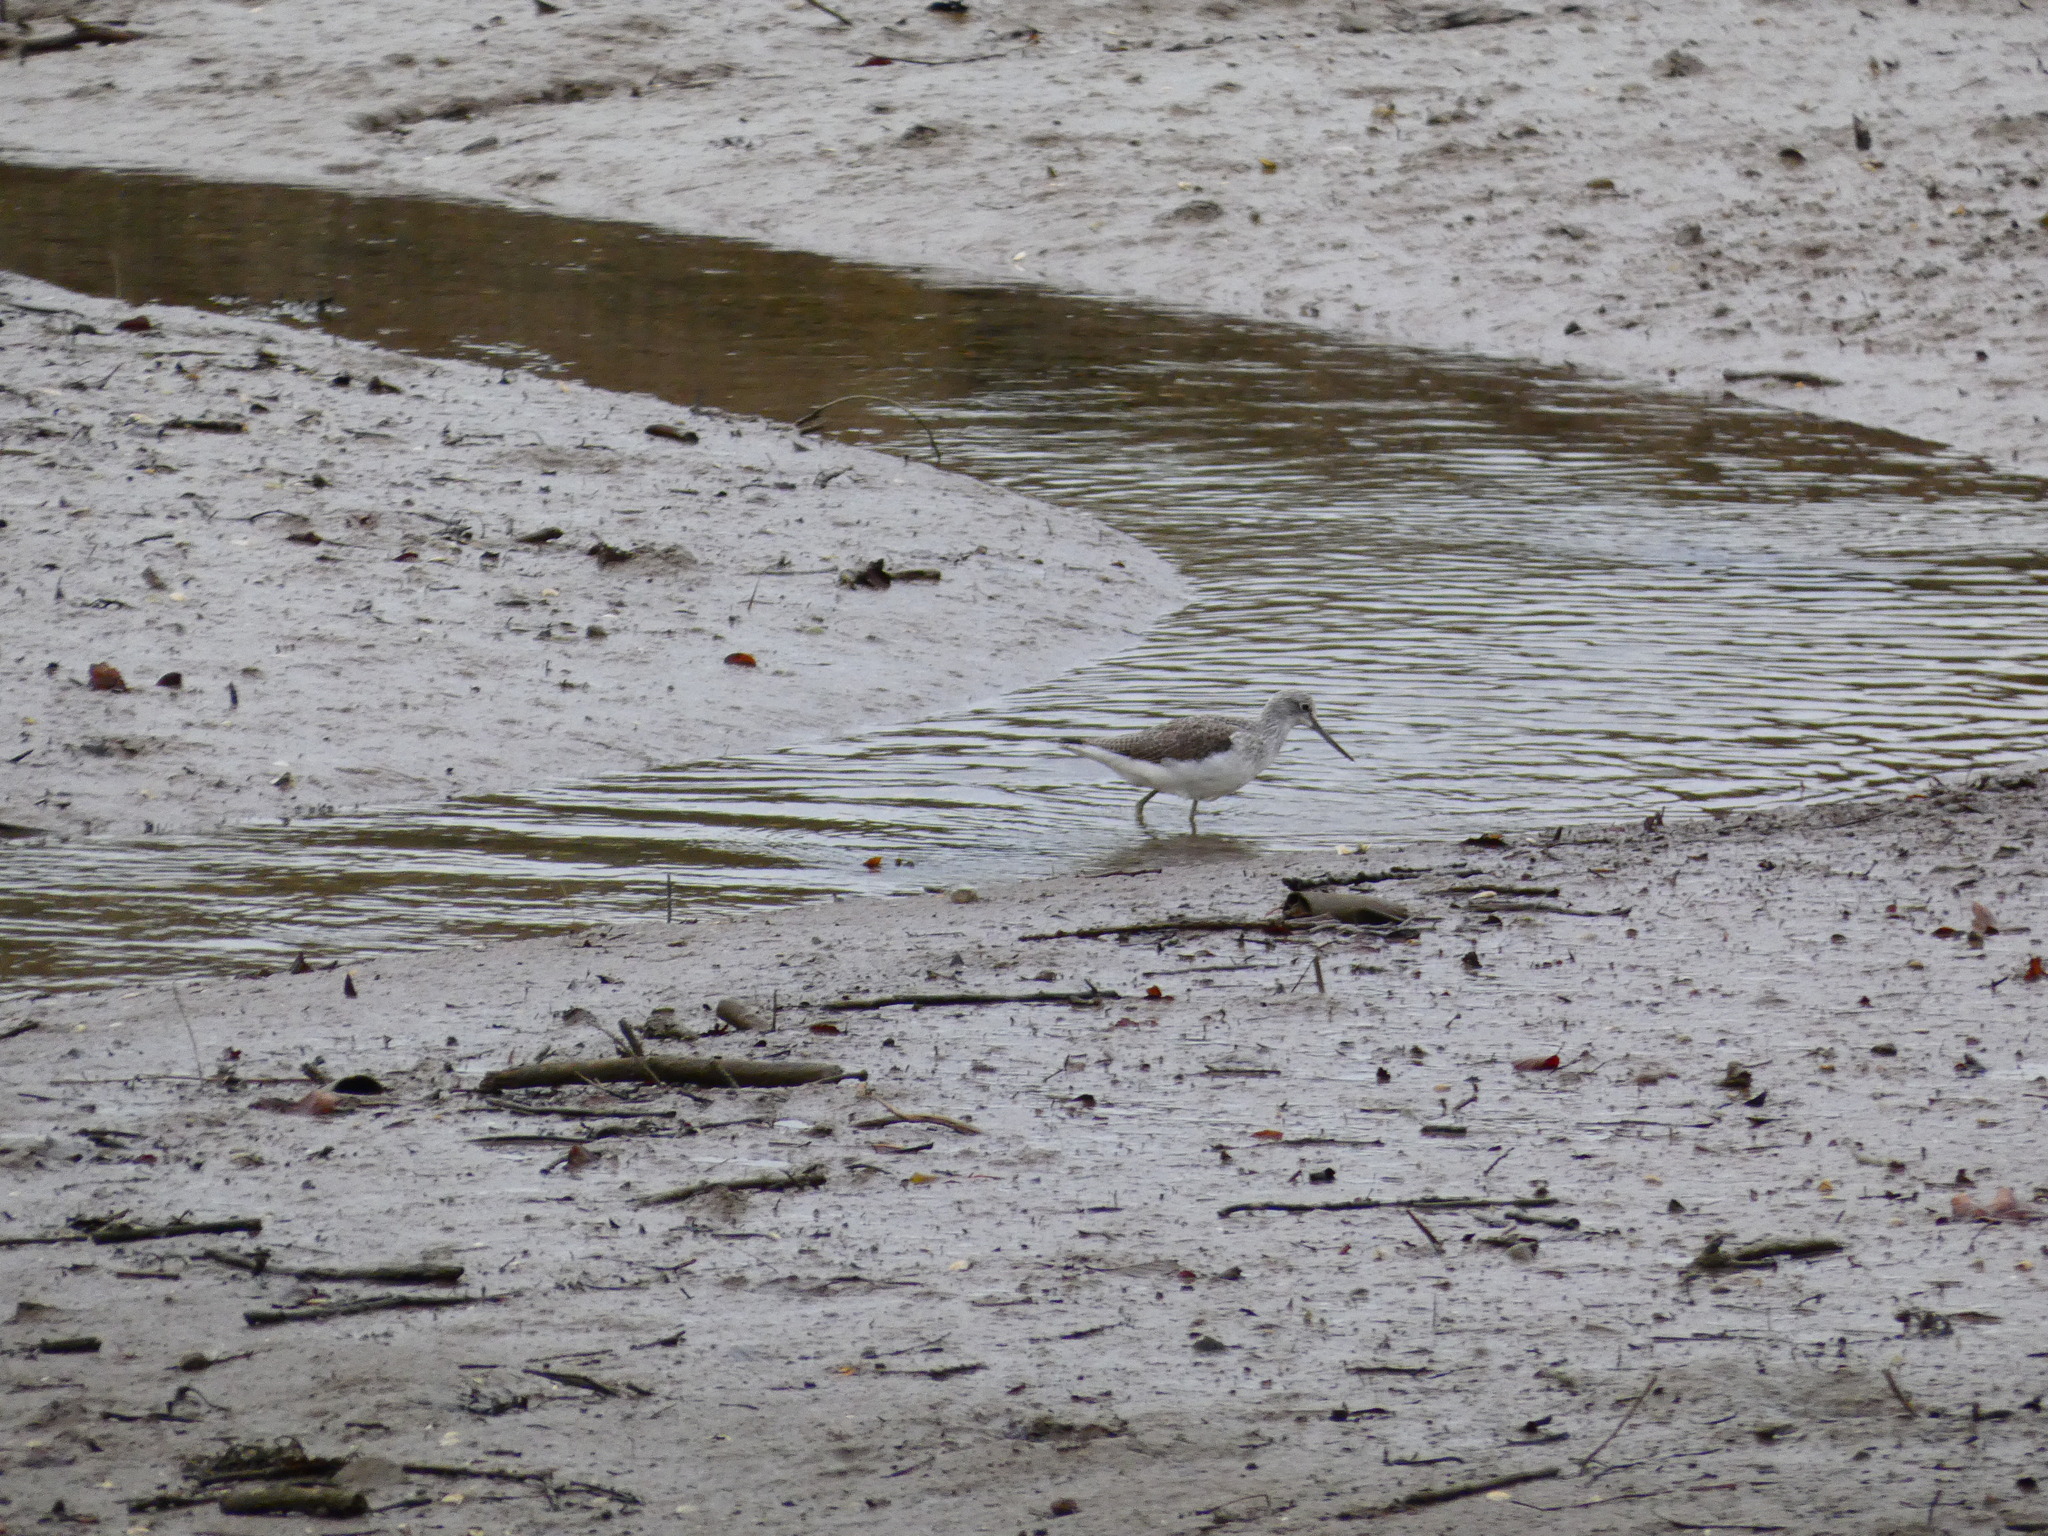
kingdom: Animalia
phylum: Chordata
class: Aves
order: Charadriiformes
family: Scolopacidae
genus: Tringa
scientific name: Tringa nebularia
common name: Common greenshank
